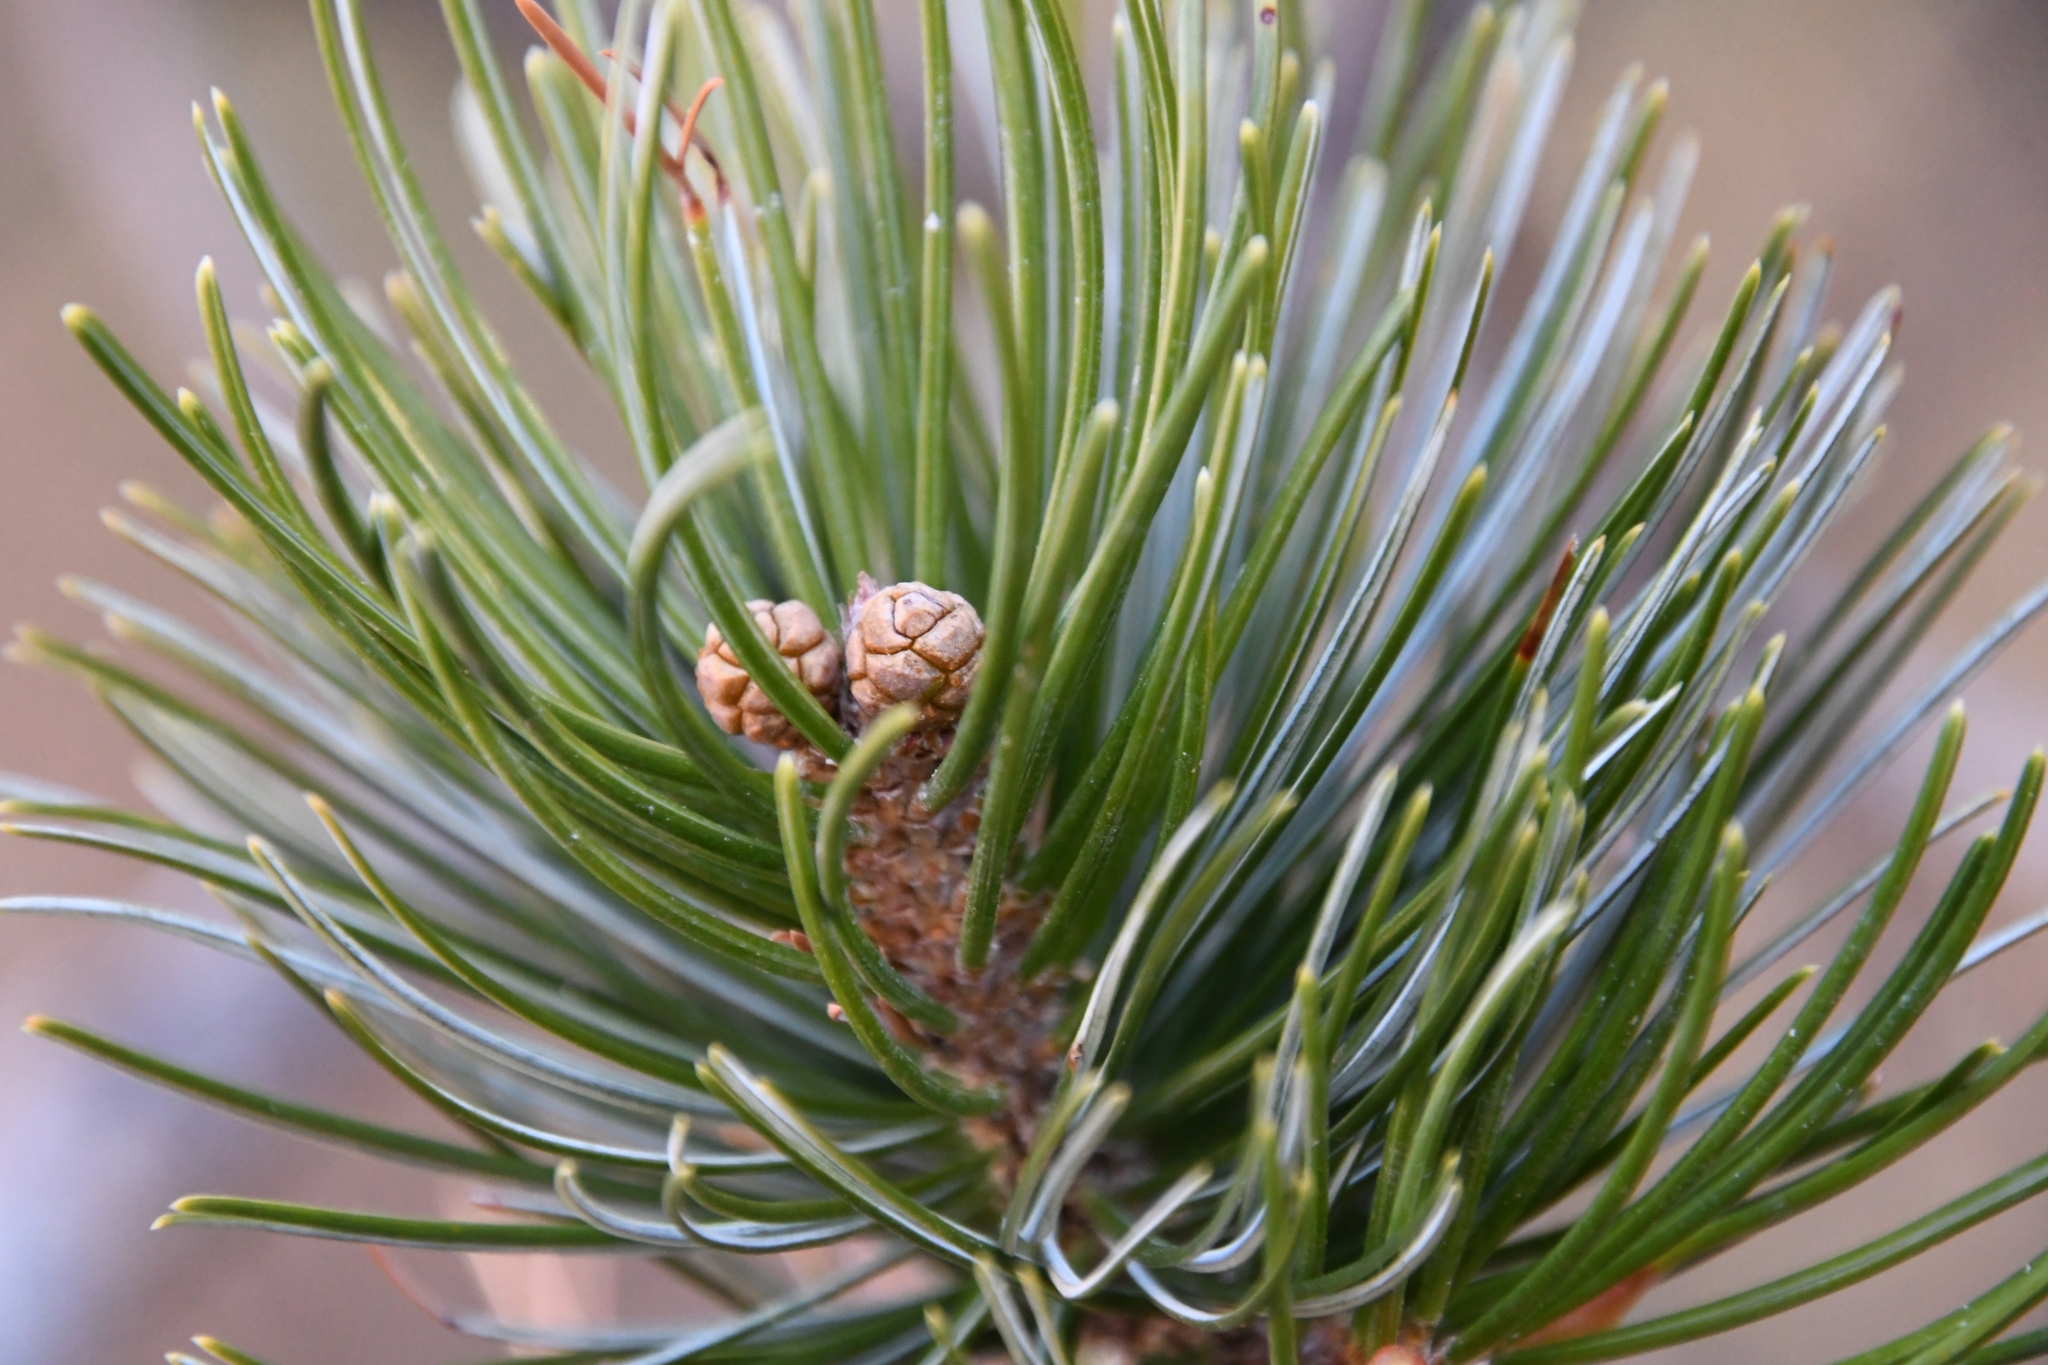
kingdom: Plantae
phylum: Tracheophyta
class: Pinopsida
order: Pinales
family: Pinaceae
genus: Pinus
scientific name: Pinus cembroides
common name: Mexican nut pine
